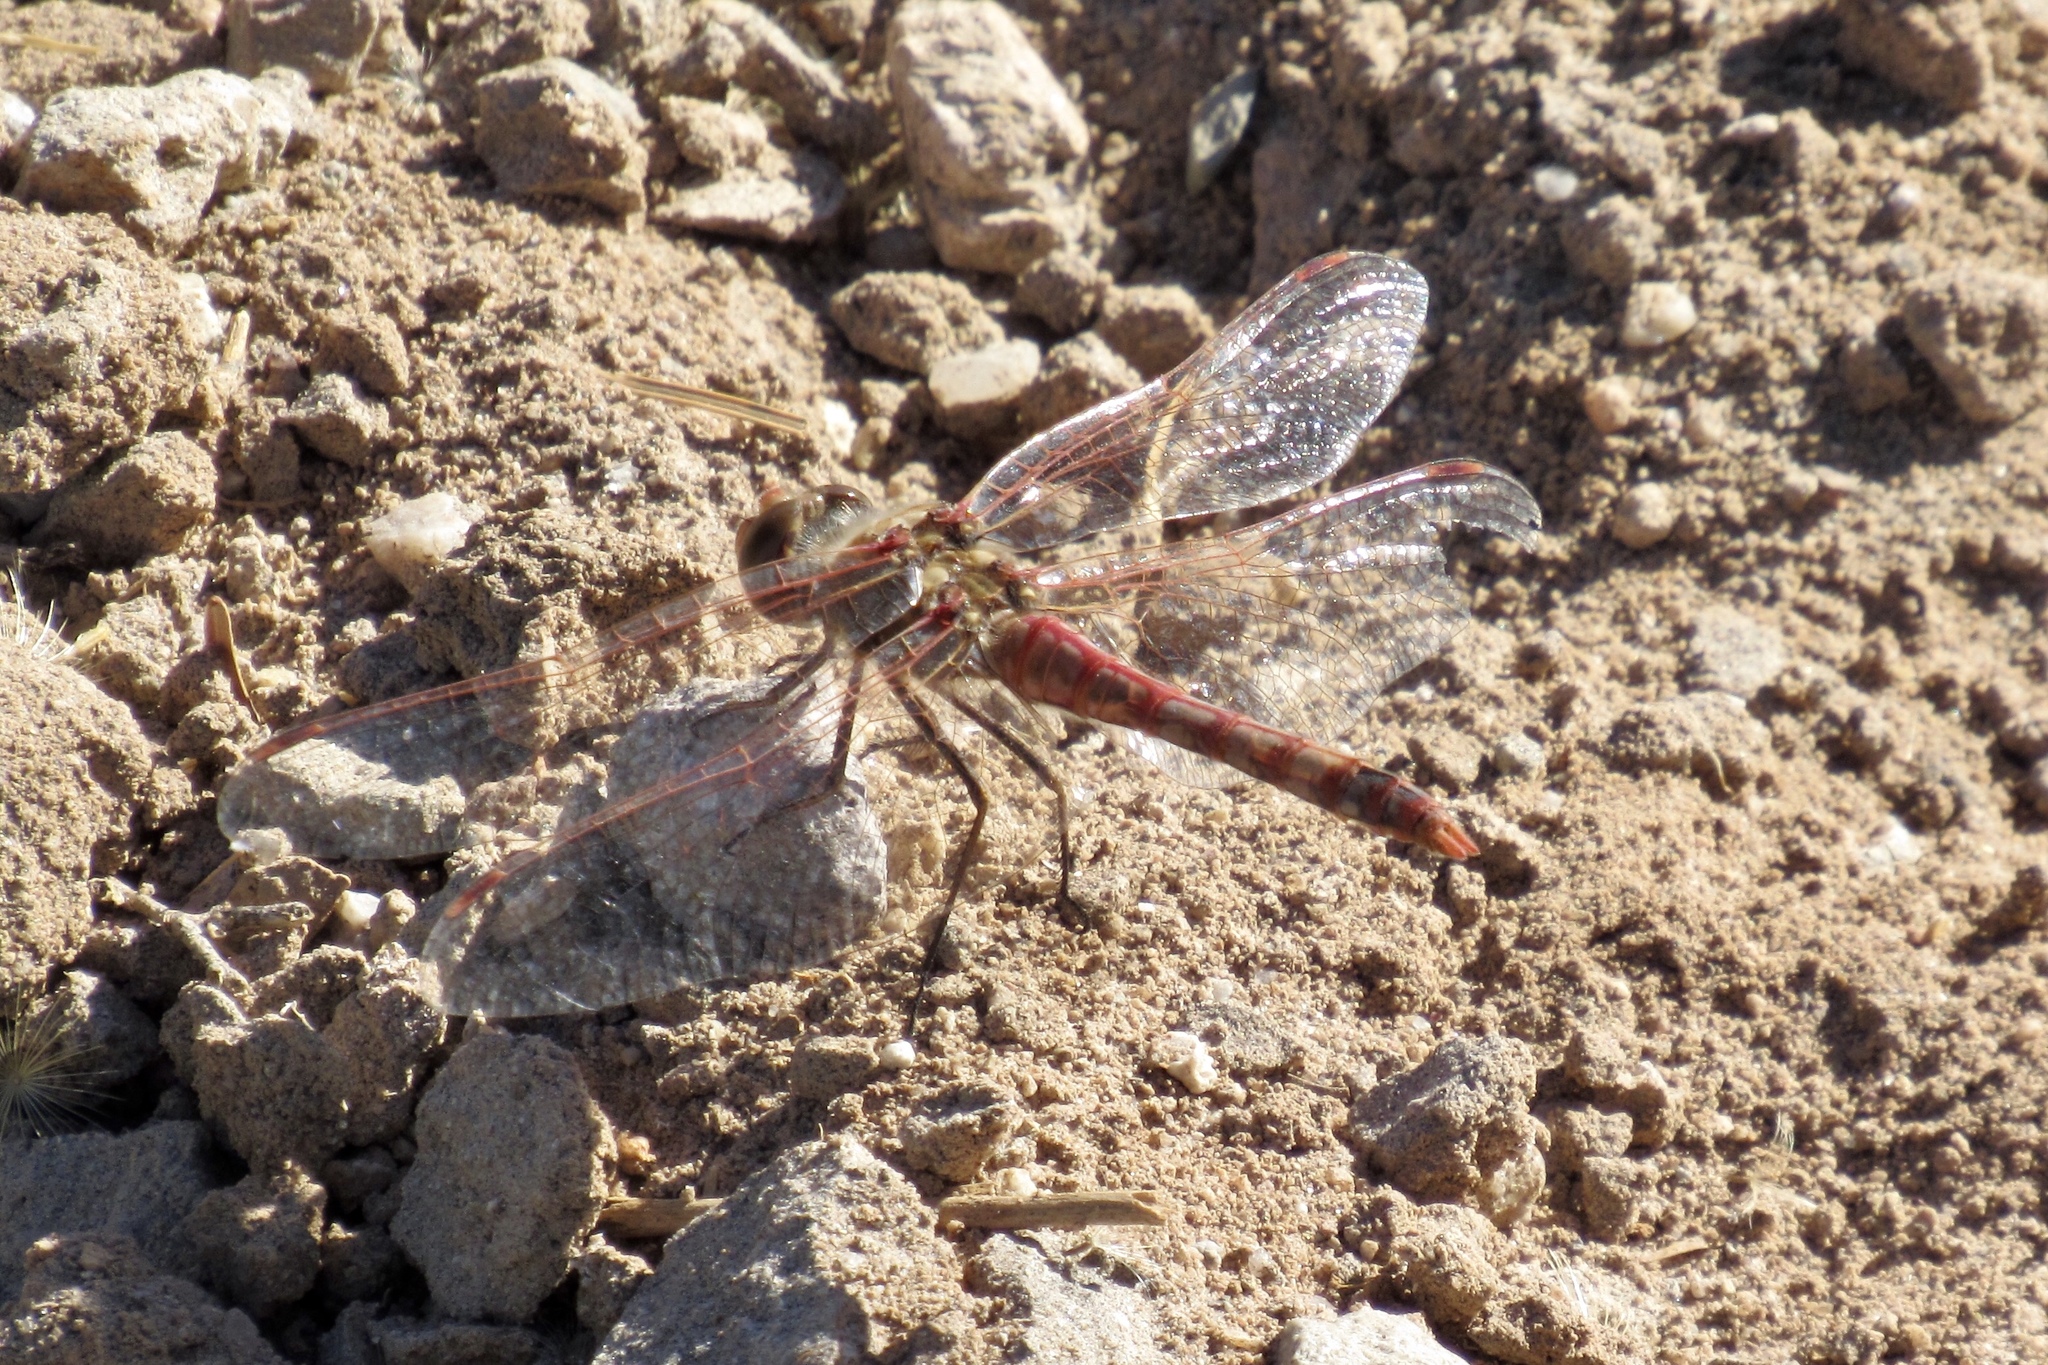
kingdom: Animalia
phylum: Arthropoda
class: Insecta
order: Odonata
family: Libellulidae
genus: Sympetrum
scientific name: Sympetrum corruptum
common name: Variegated meadowhawk
